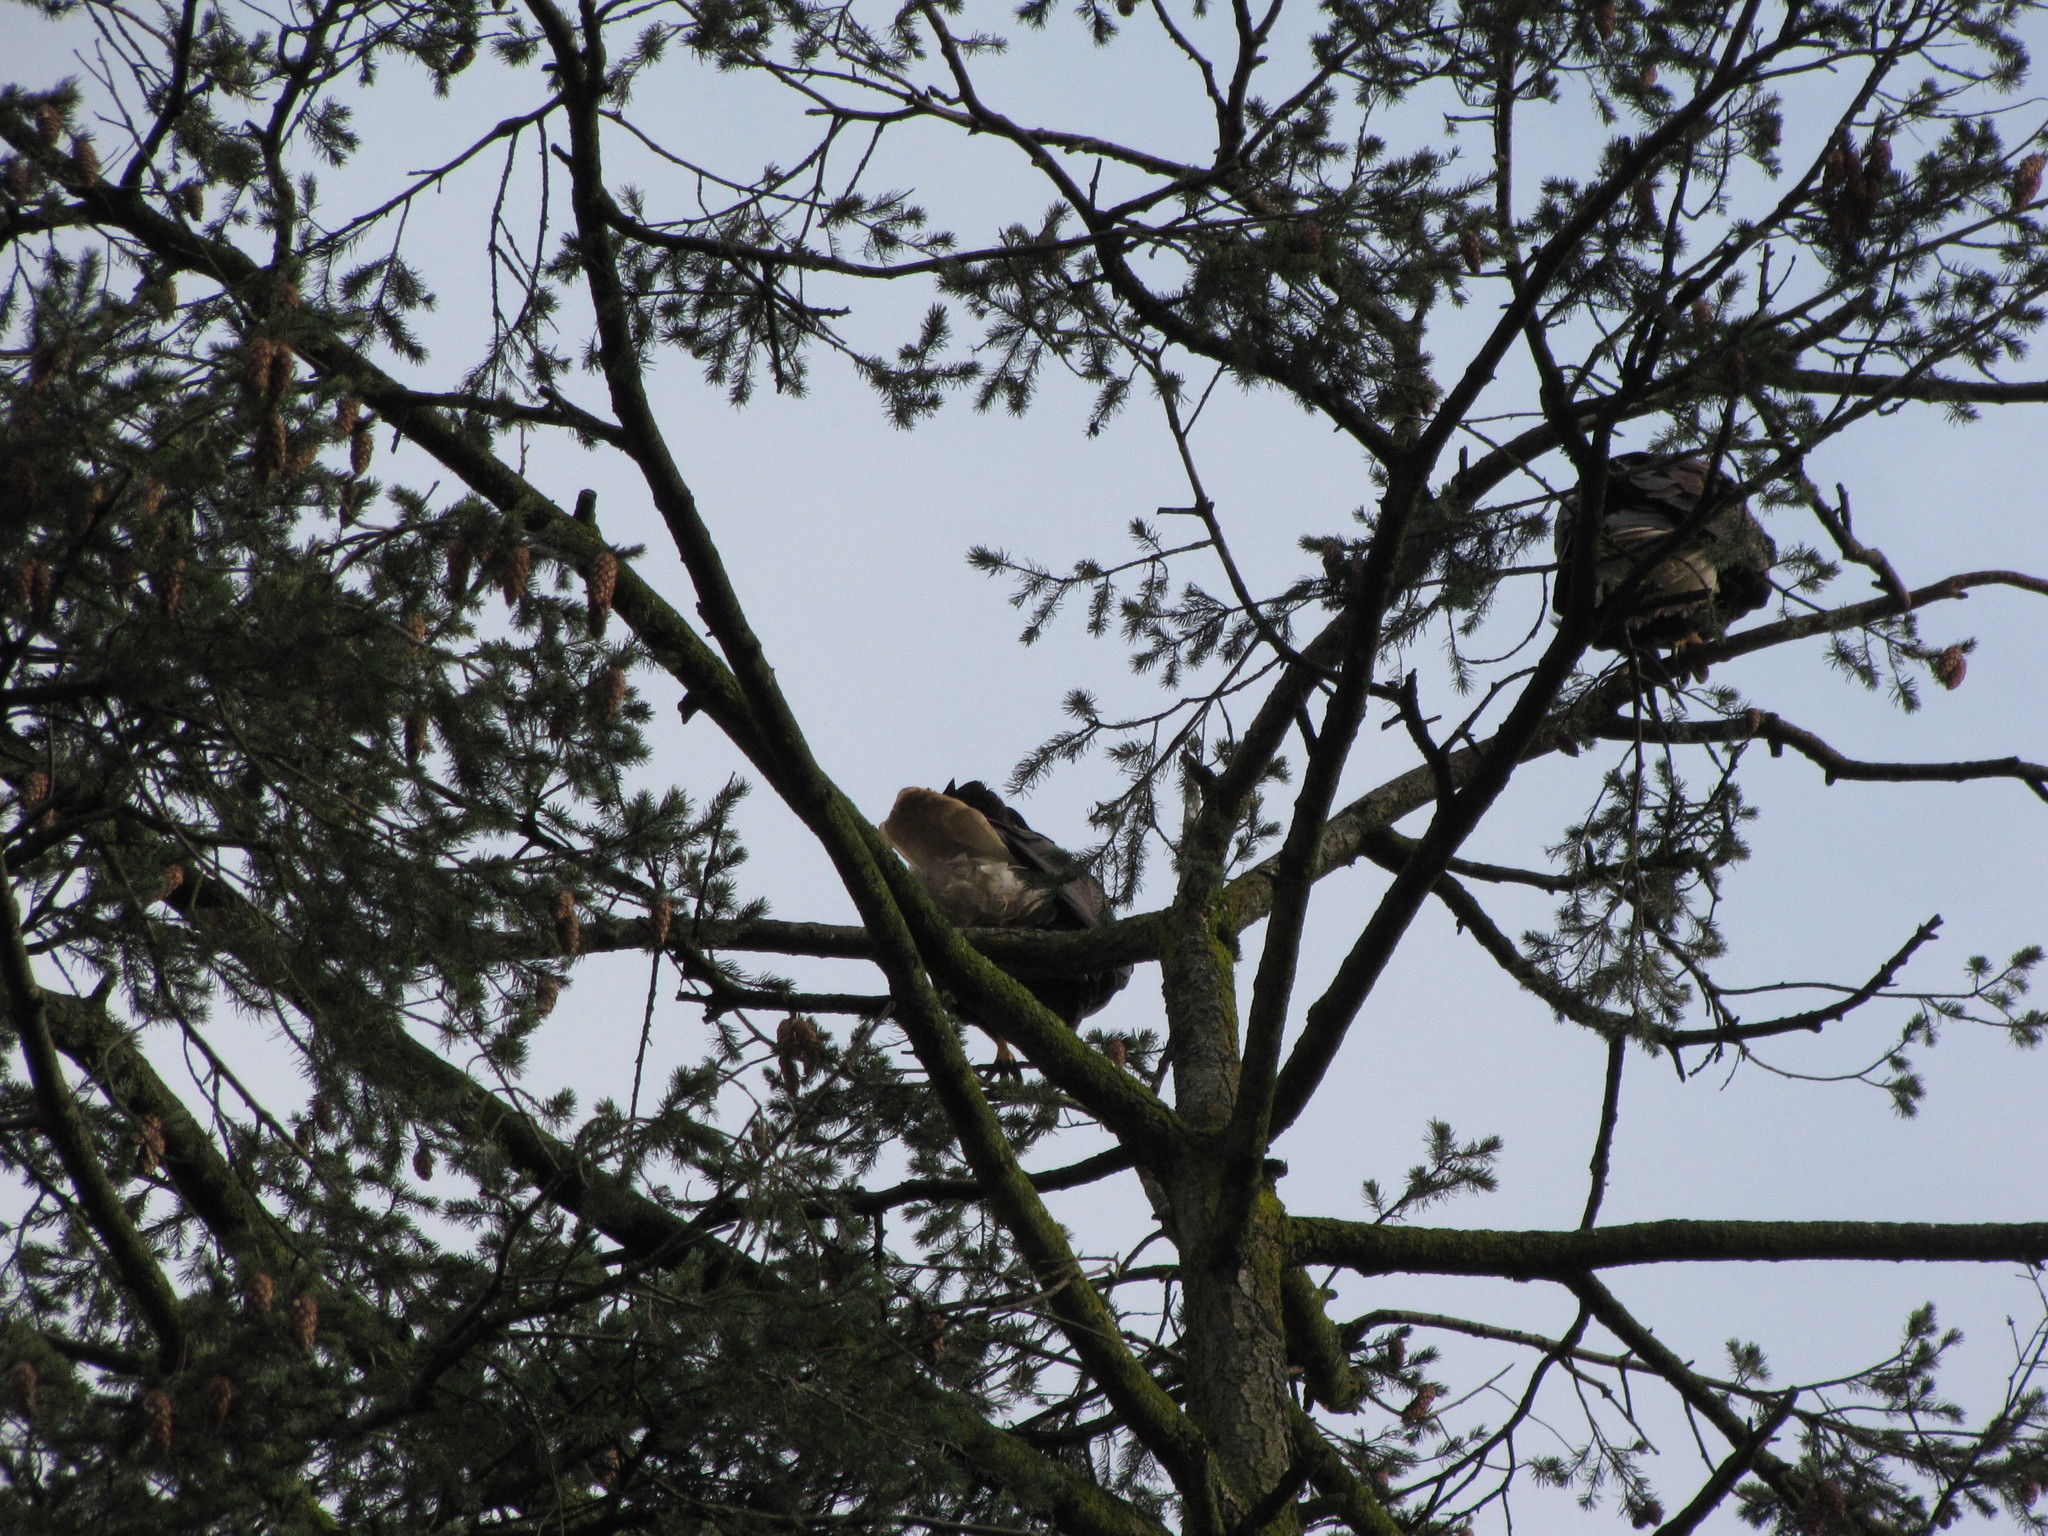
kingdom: Animalia
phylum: Chordata
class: Aves
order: Accipitriformes
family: Accipitridae
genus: Haliaeetus
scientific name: Haliaeetus leucocephalus
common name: Bald eagle
